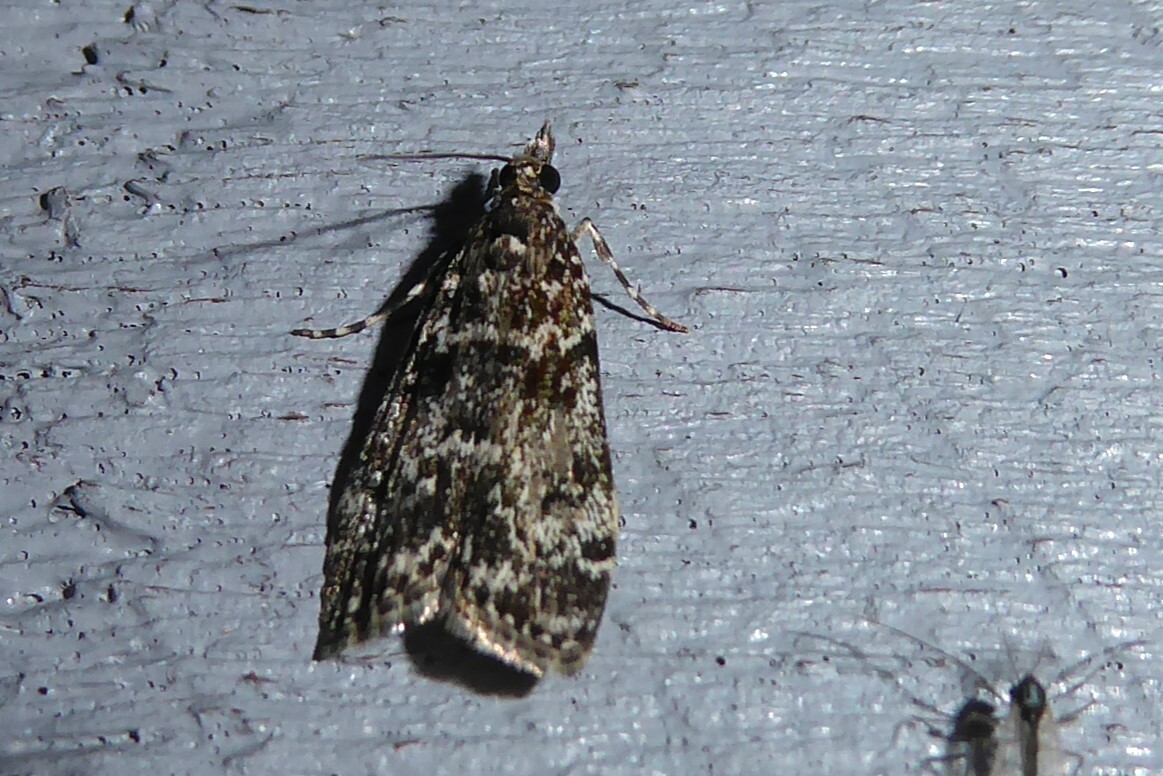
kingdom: Animalia
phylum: Arthropoda
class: Insecta
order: Lepidoptera
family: Crambidae
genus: Eudonia
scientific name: Eudonia philerga
